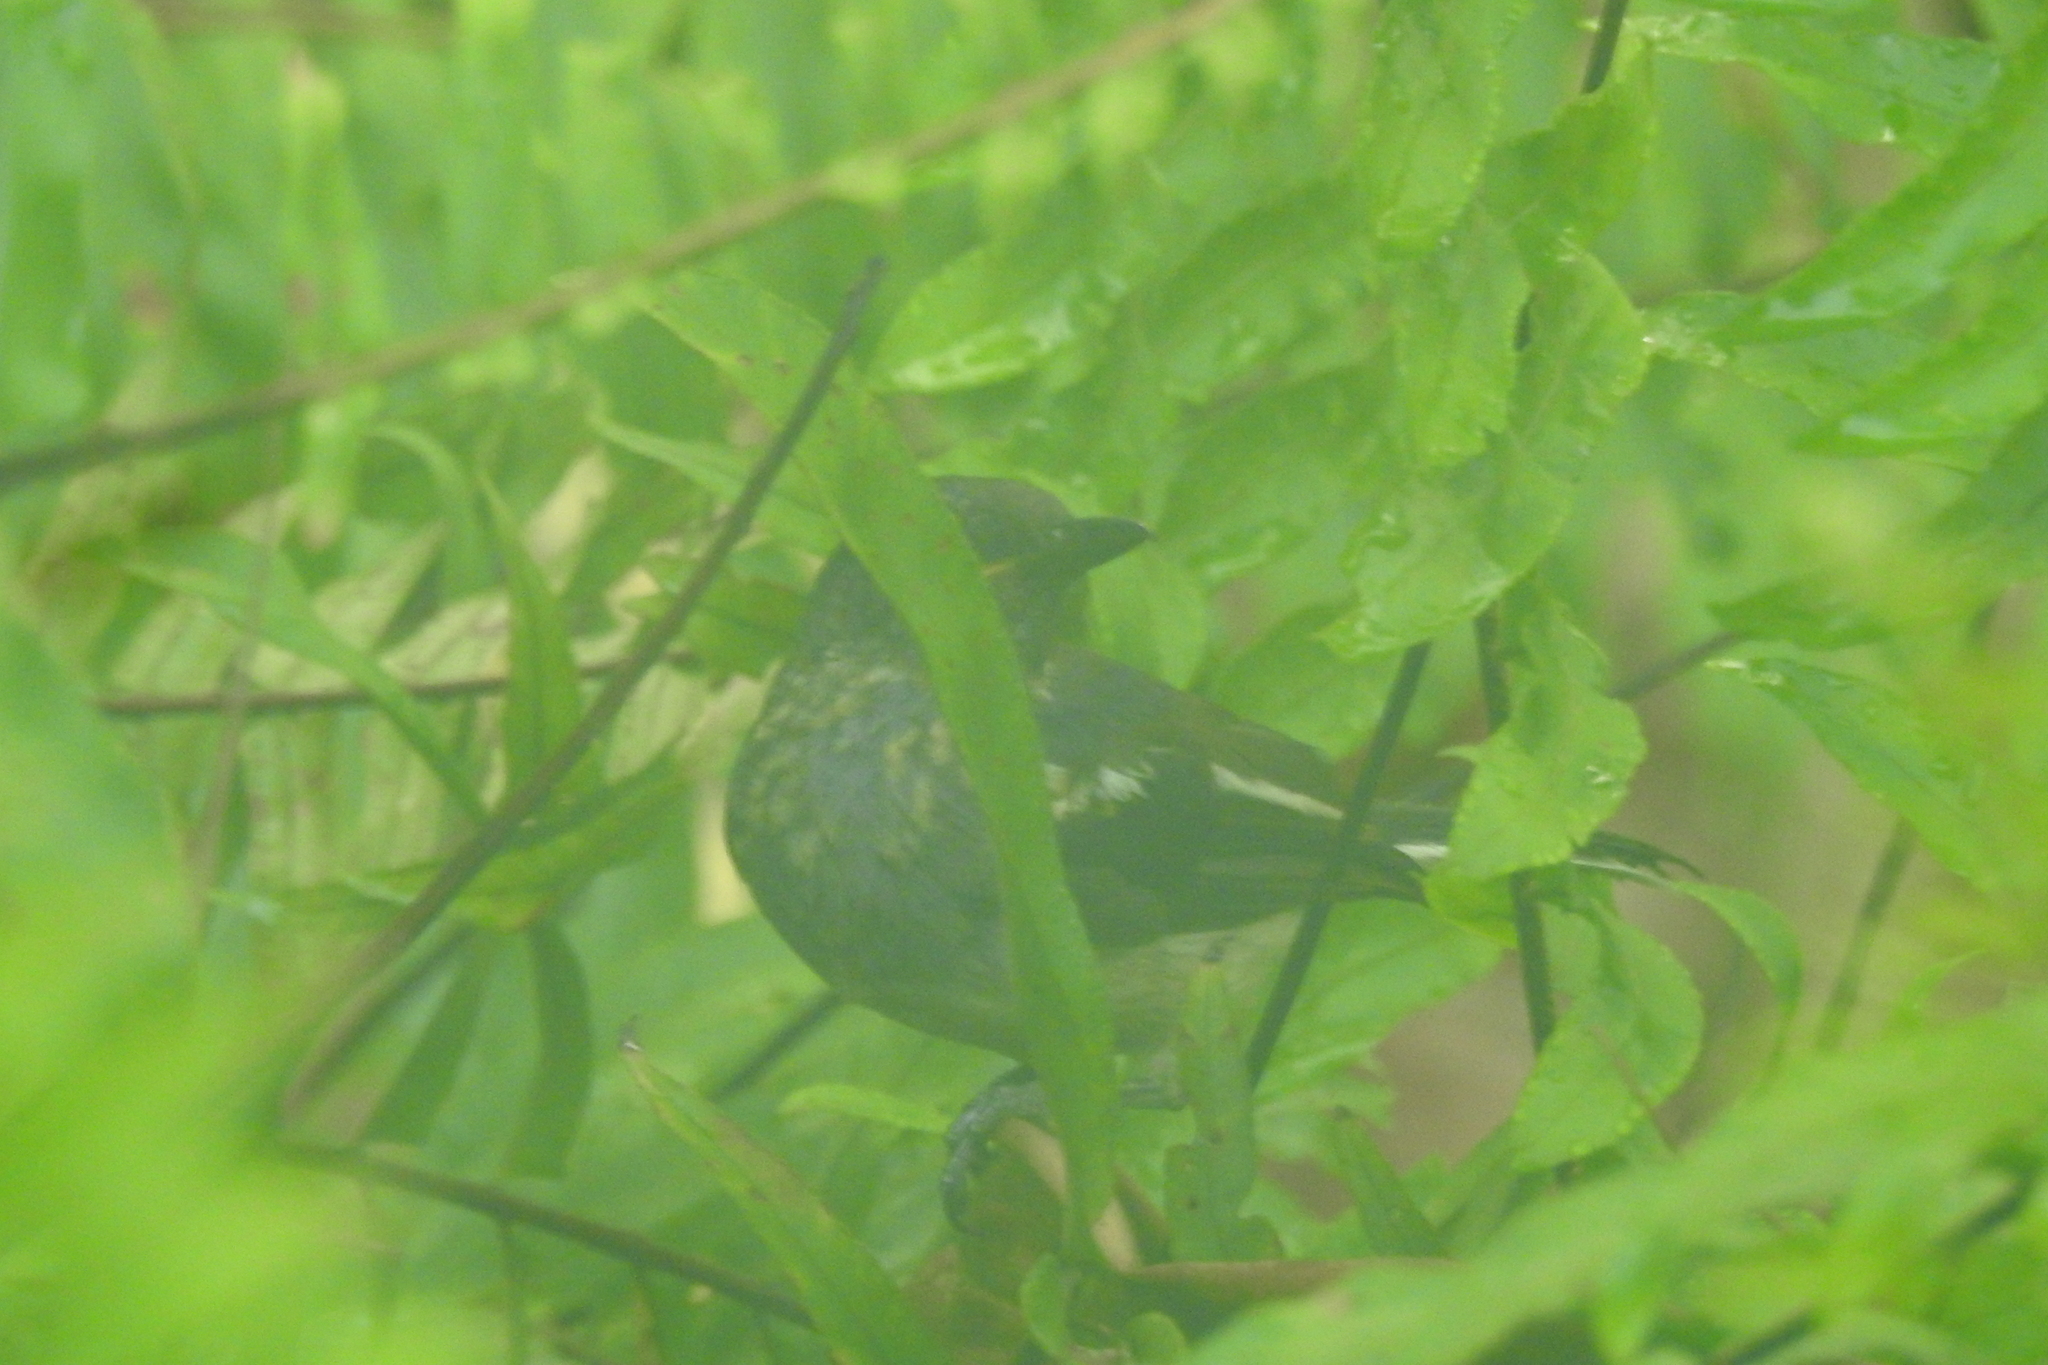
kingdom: Animalia
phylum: Chordata
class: Aves
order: Passeriformes
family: Muscicapidae
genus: Copsychus
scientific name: Copsychus saularis
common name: Oriental magpie-robin
